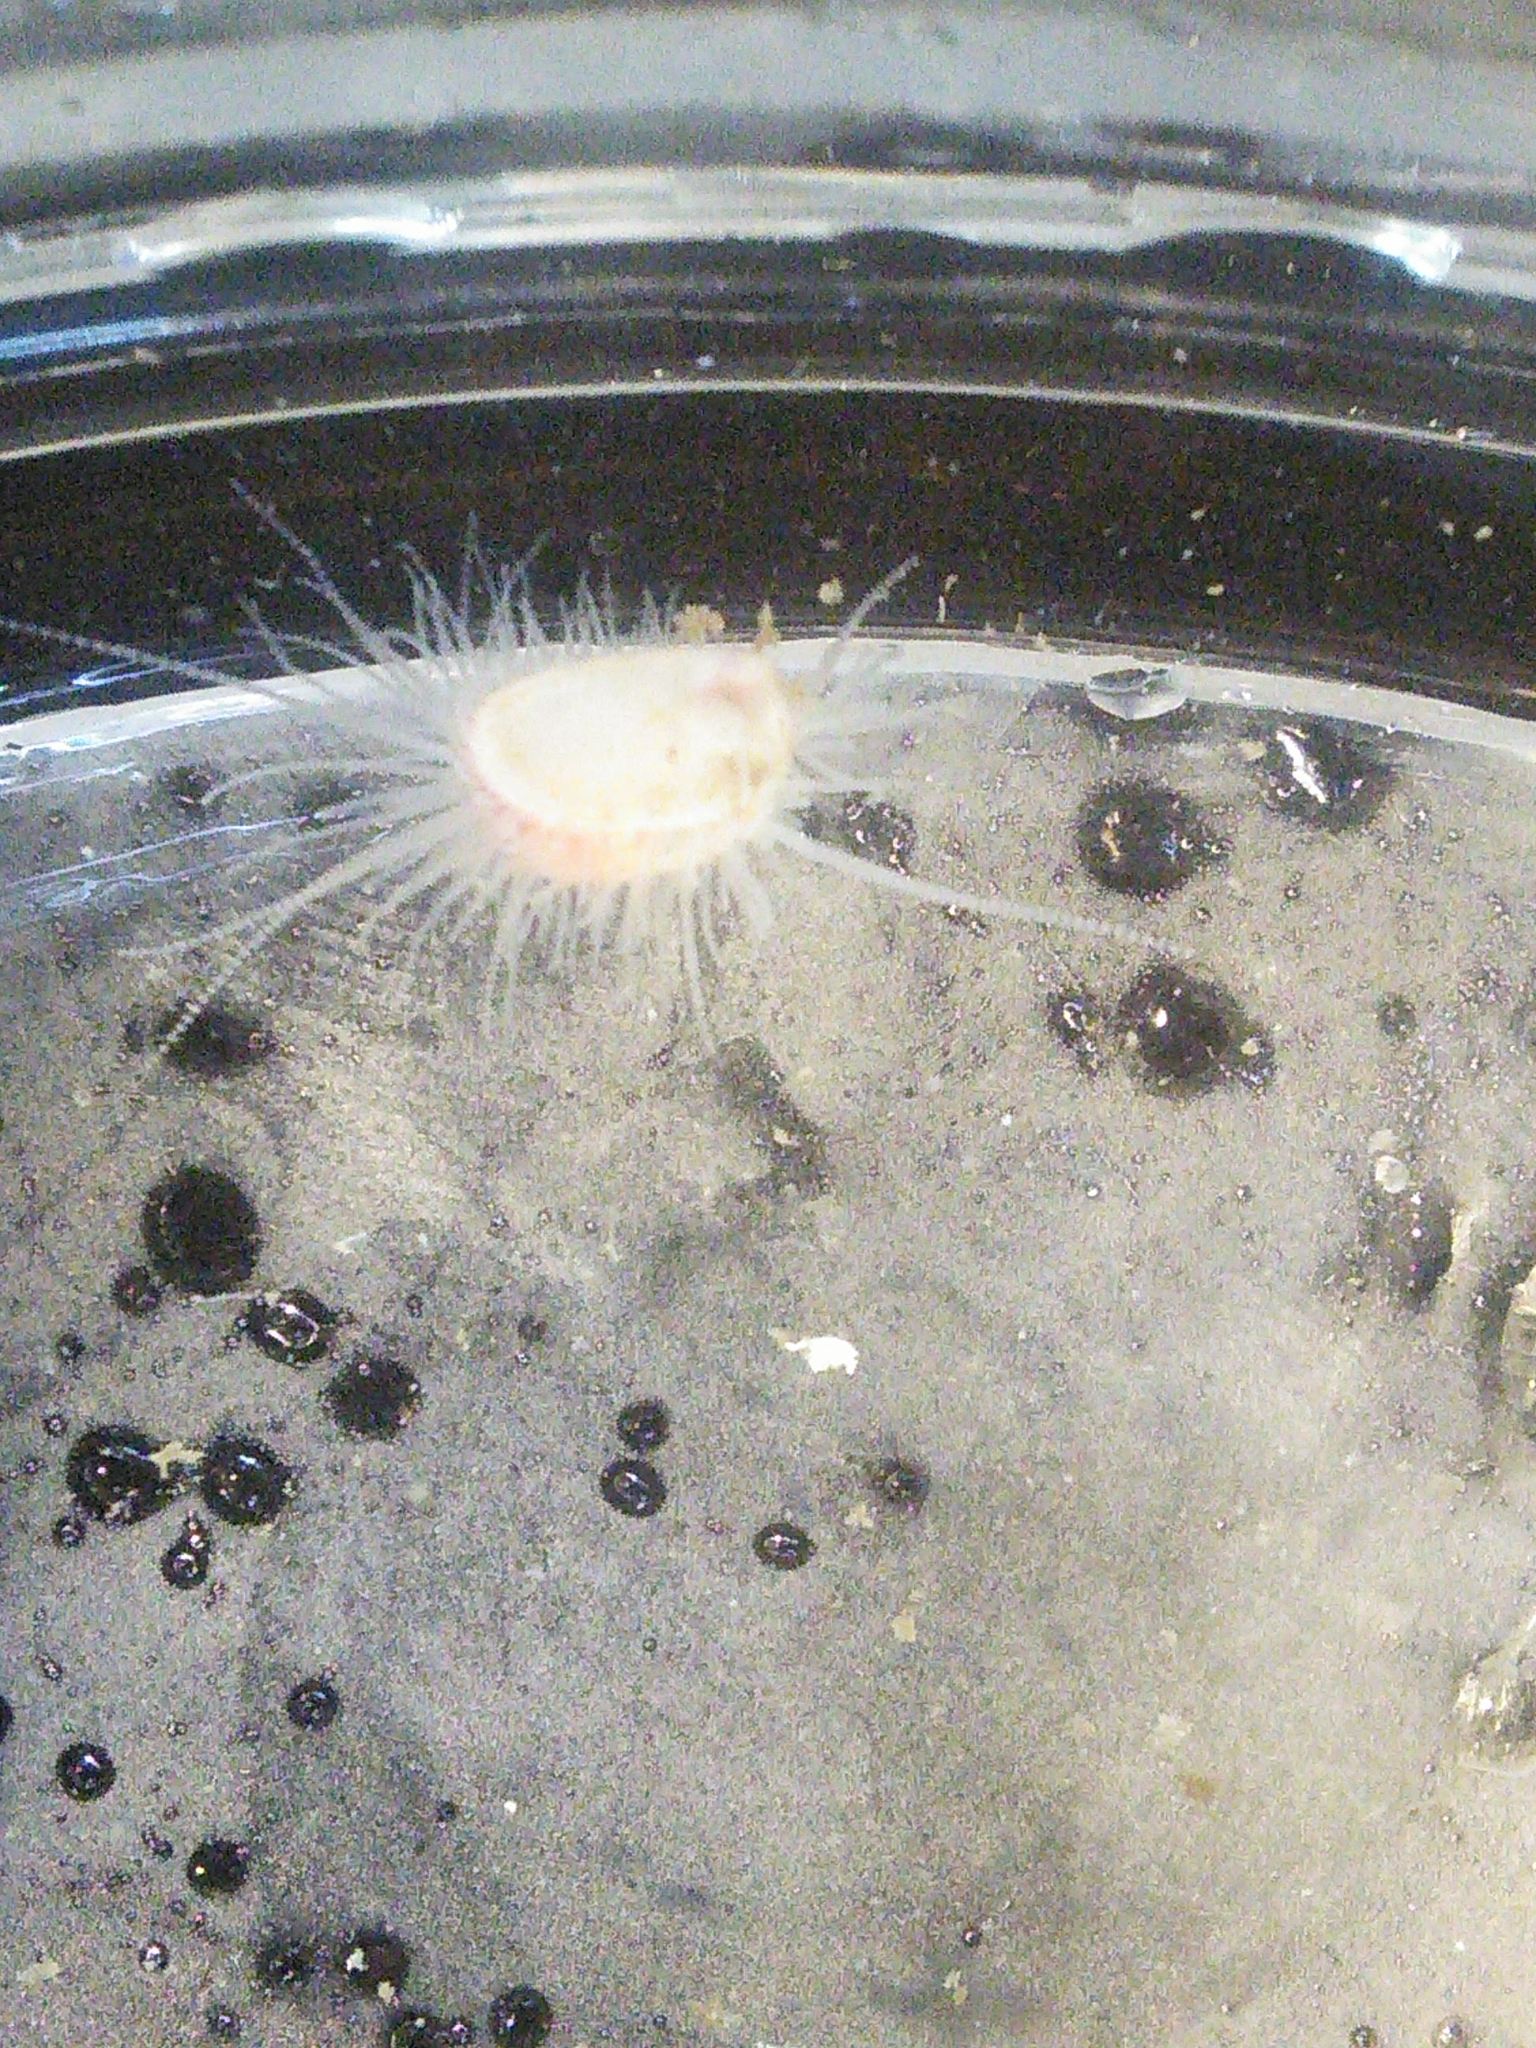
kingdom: Animalia
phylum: Mollusca
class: Bivalvia
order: Limida
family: Limidae
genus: Limaria
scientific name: Limaria hemphilli
